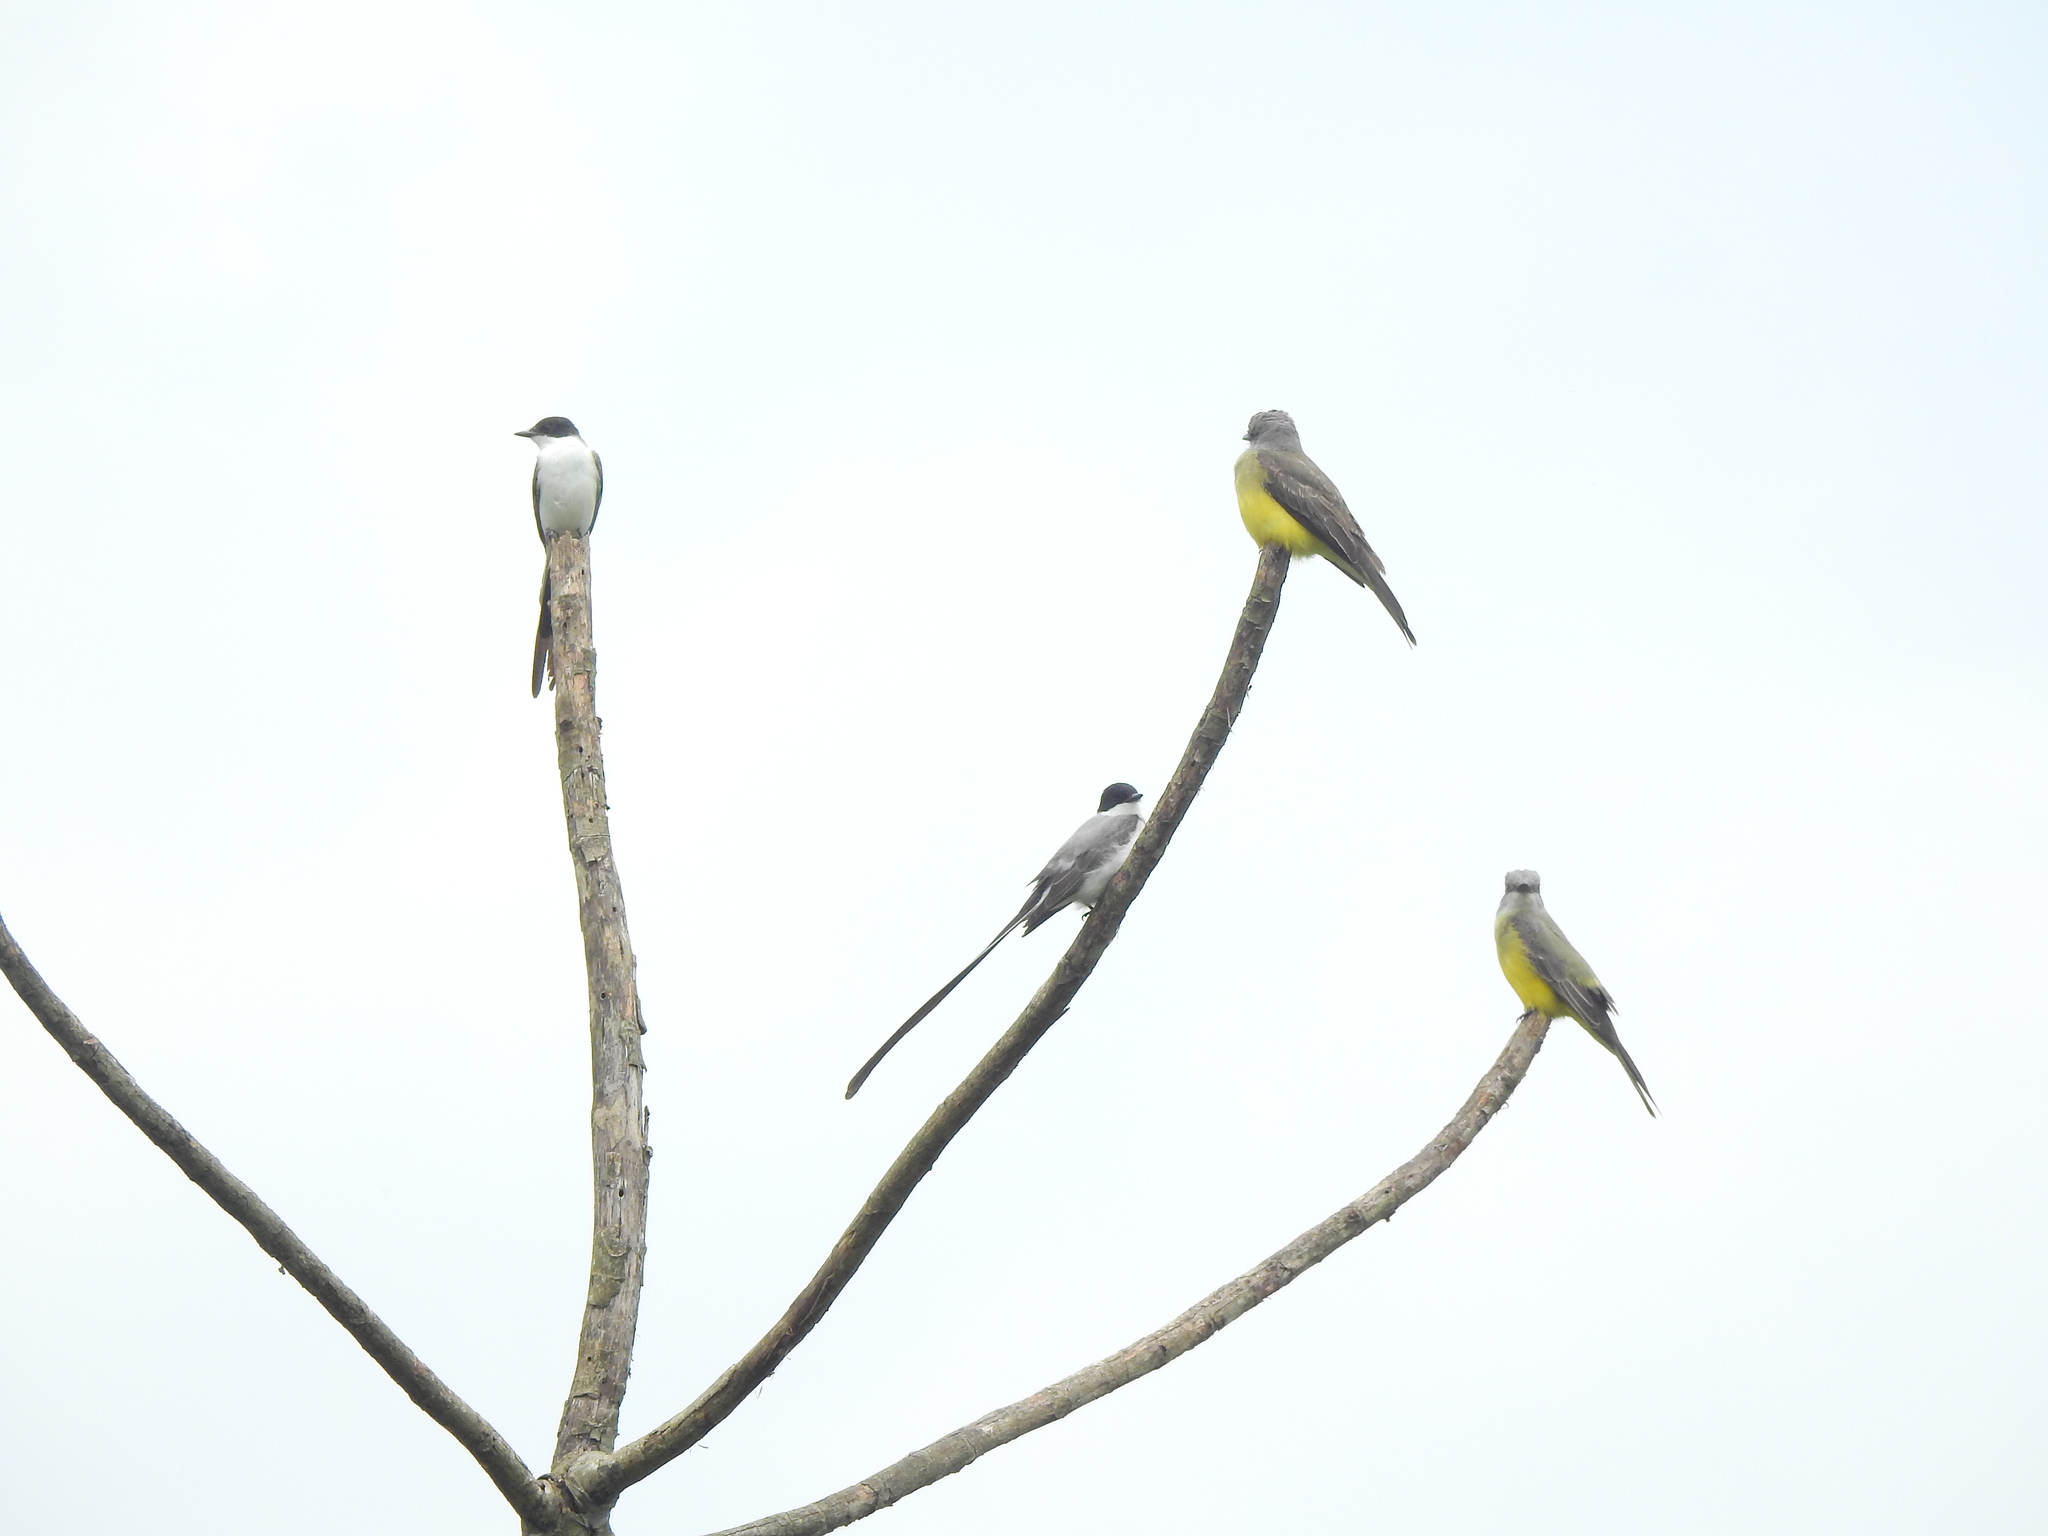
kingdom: Animalia
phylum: Chordata
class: Aves
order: Passeriformes
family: Tyrannidae
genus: Tyrannus
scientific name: Tyrannus melancholicus
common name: Tropical kingbird
